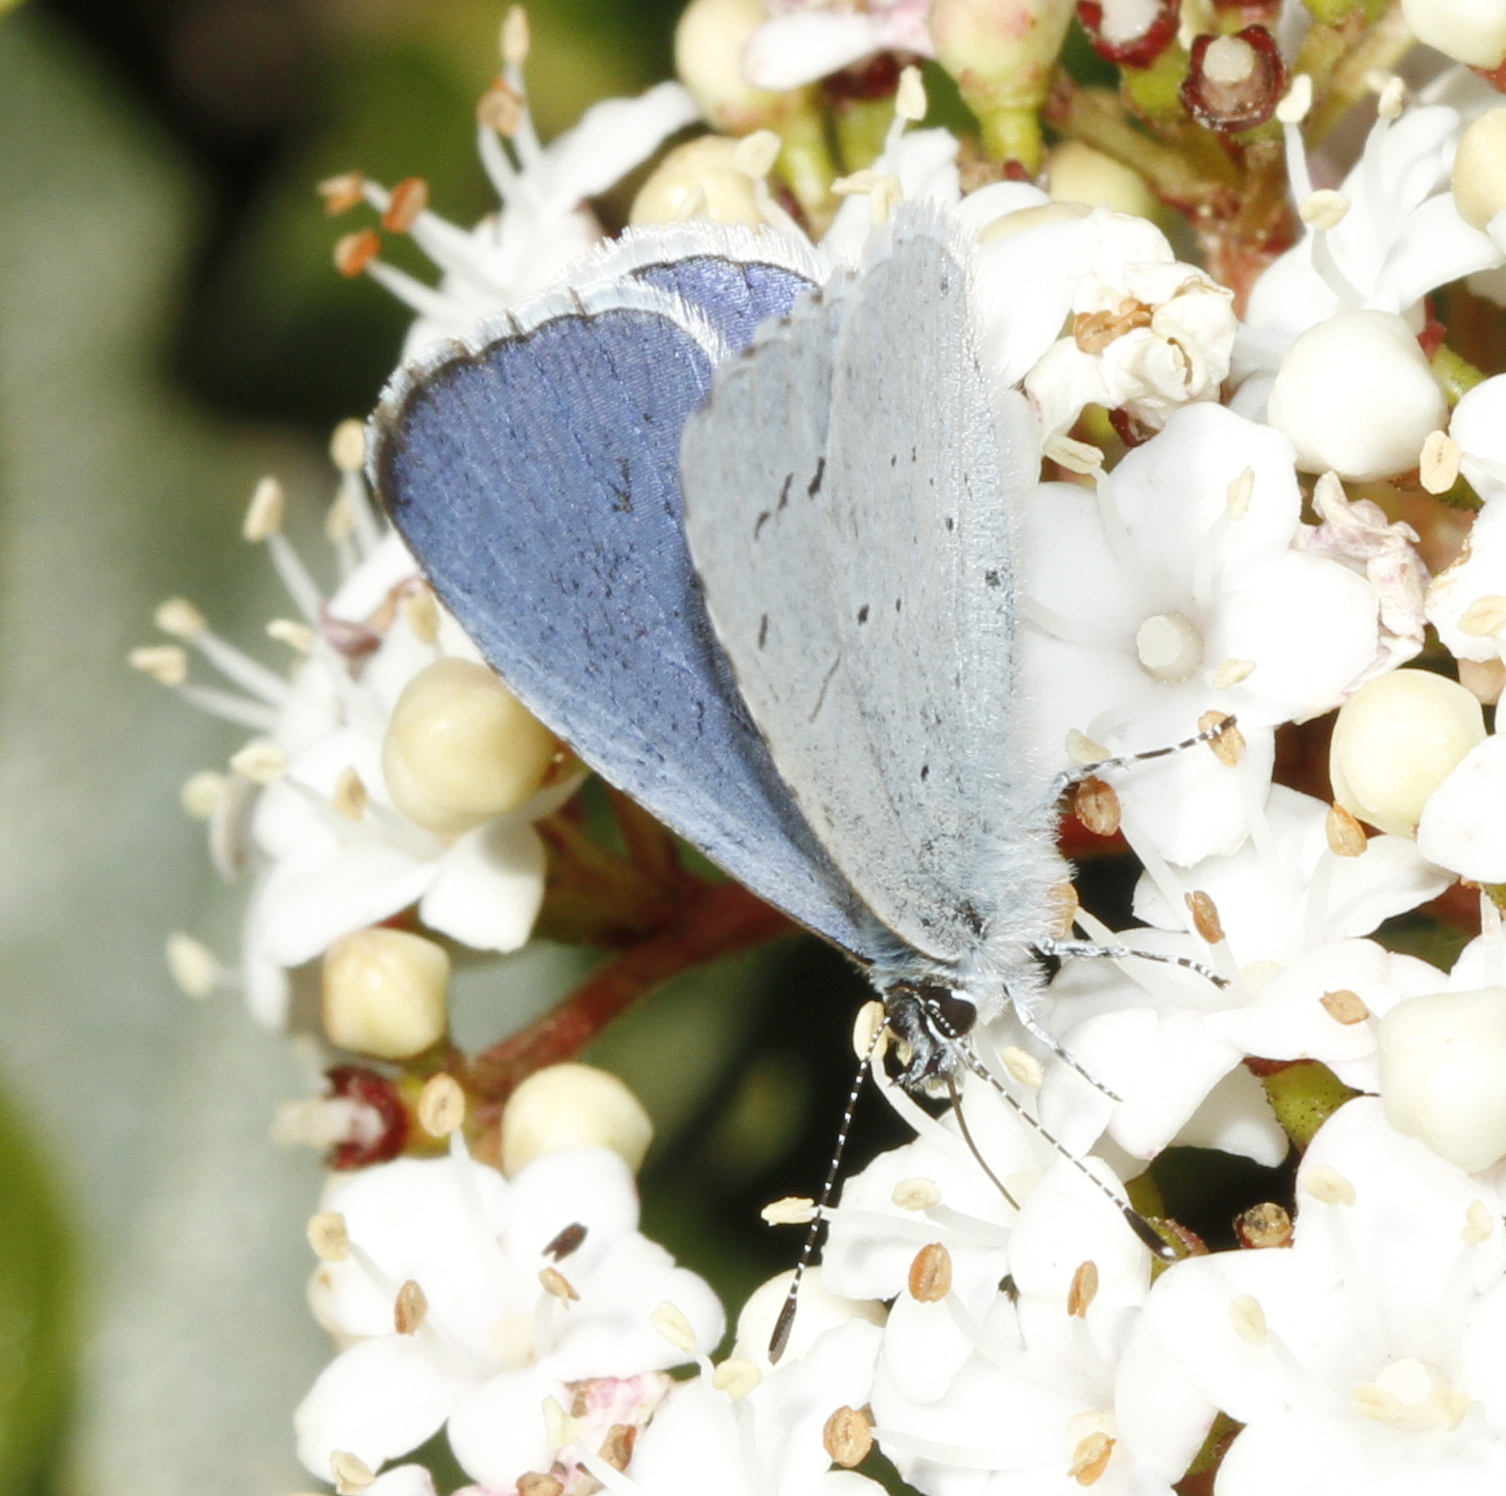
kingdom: Animalia
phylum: Arthropoda
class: Insecta
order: Lepidoptera
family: Lycaenidae
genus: Celastrina
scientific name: Celastrina argiolus
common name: Holly blue
